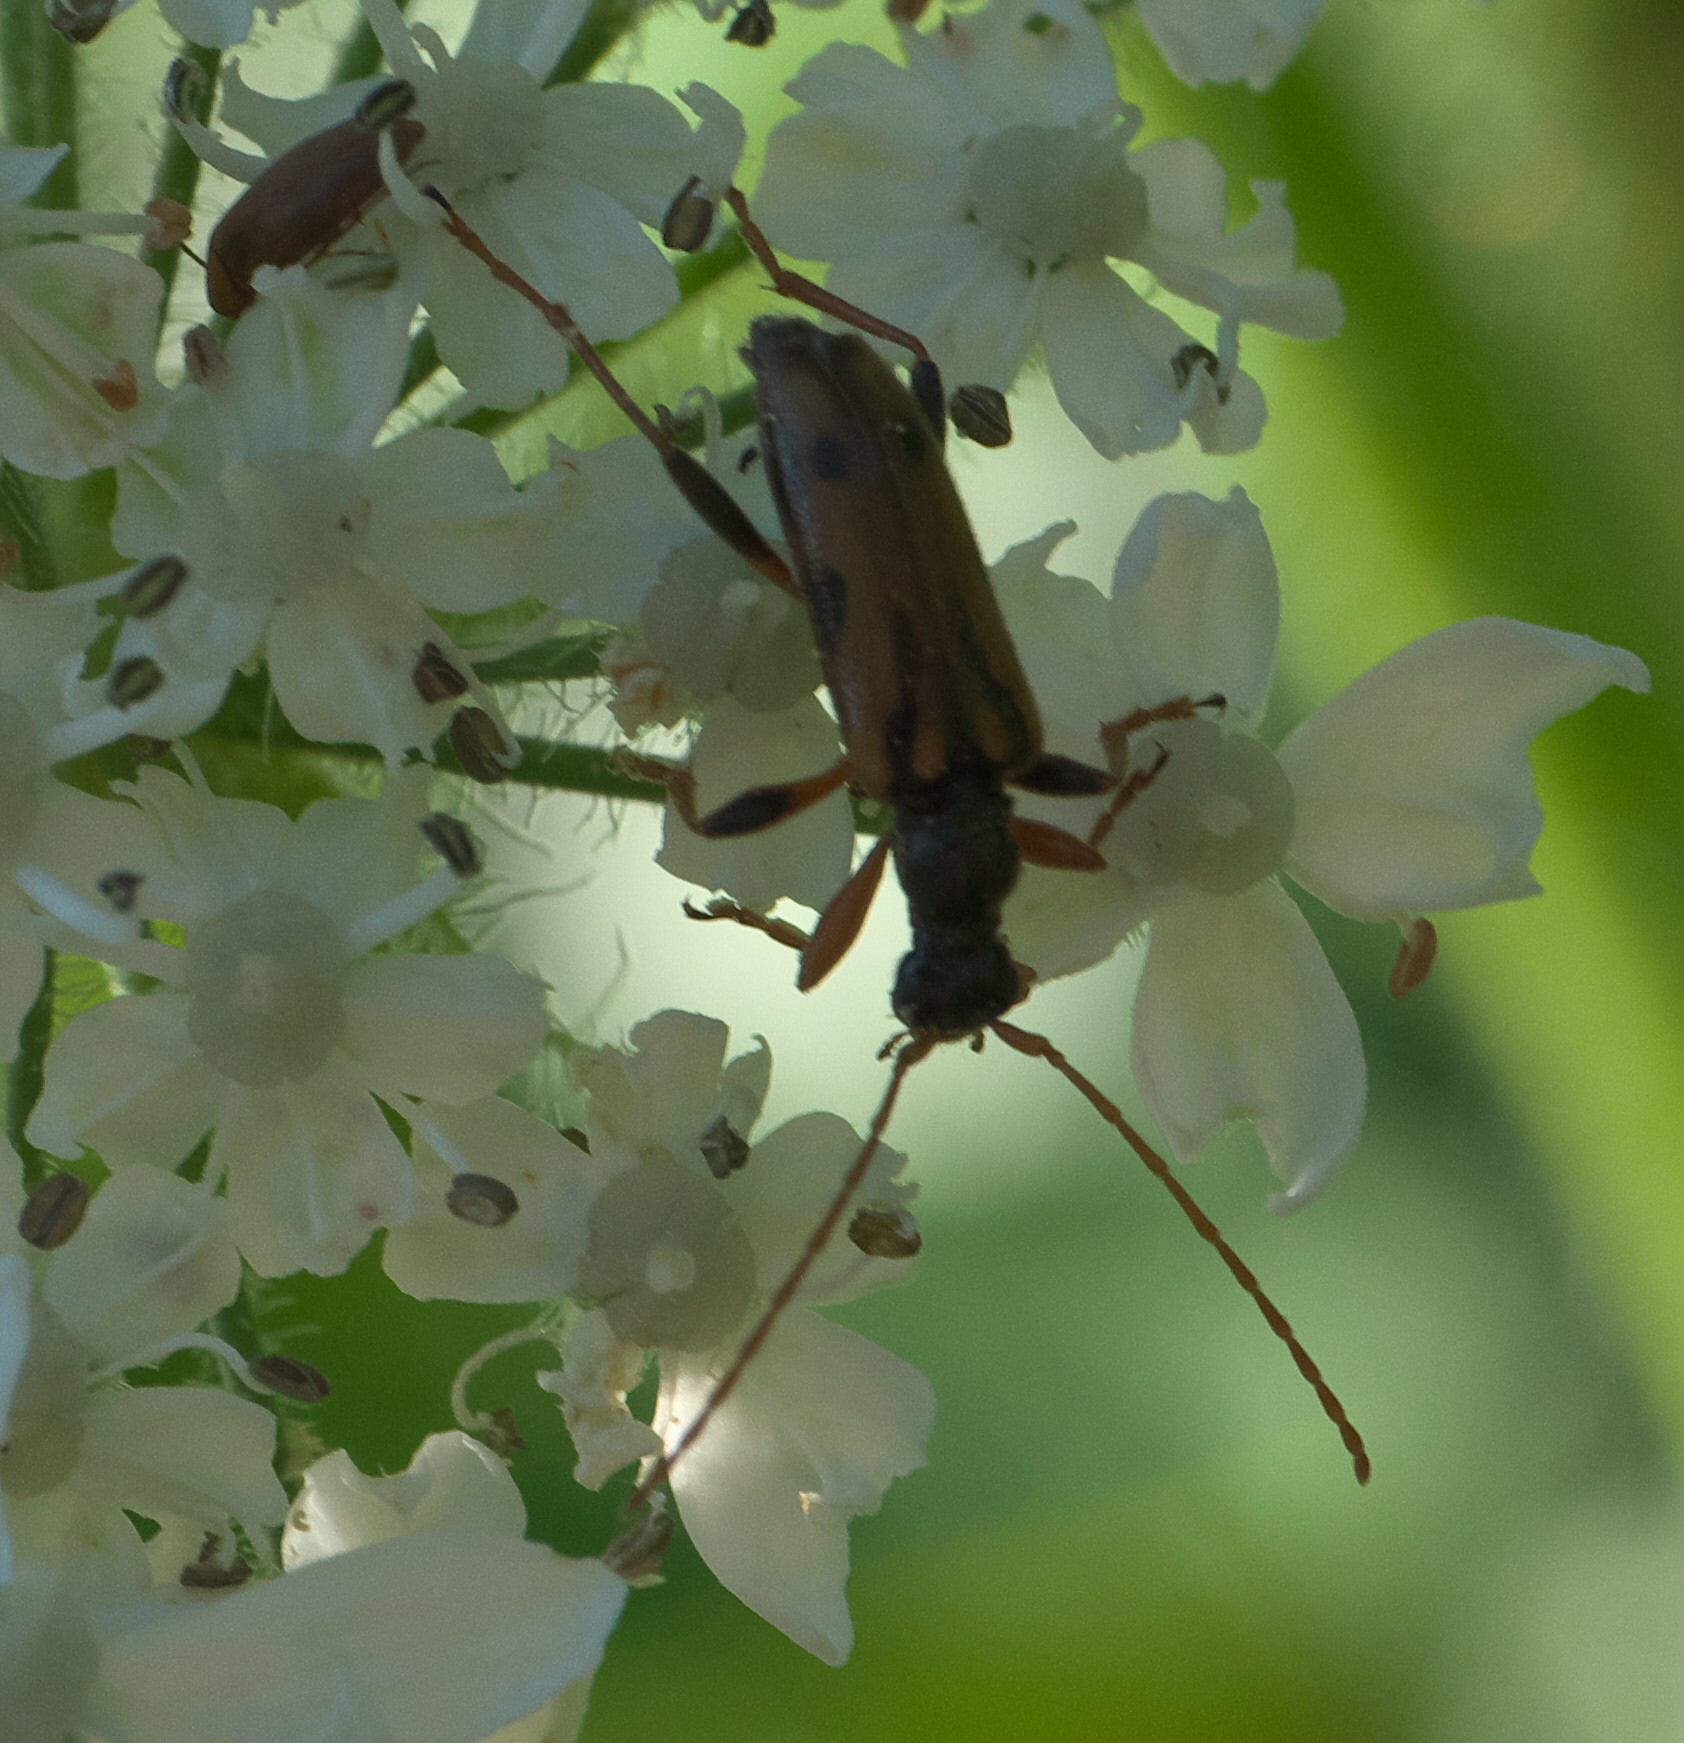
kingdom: Animalia
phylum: Arthropoda
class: Insecta
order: Coleoptera
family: Cerambycidae
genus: Pidonia
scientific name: Pidonia scripta
